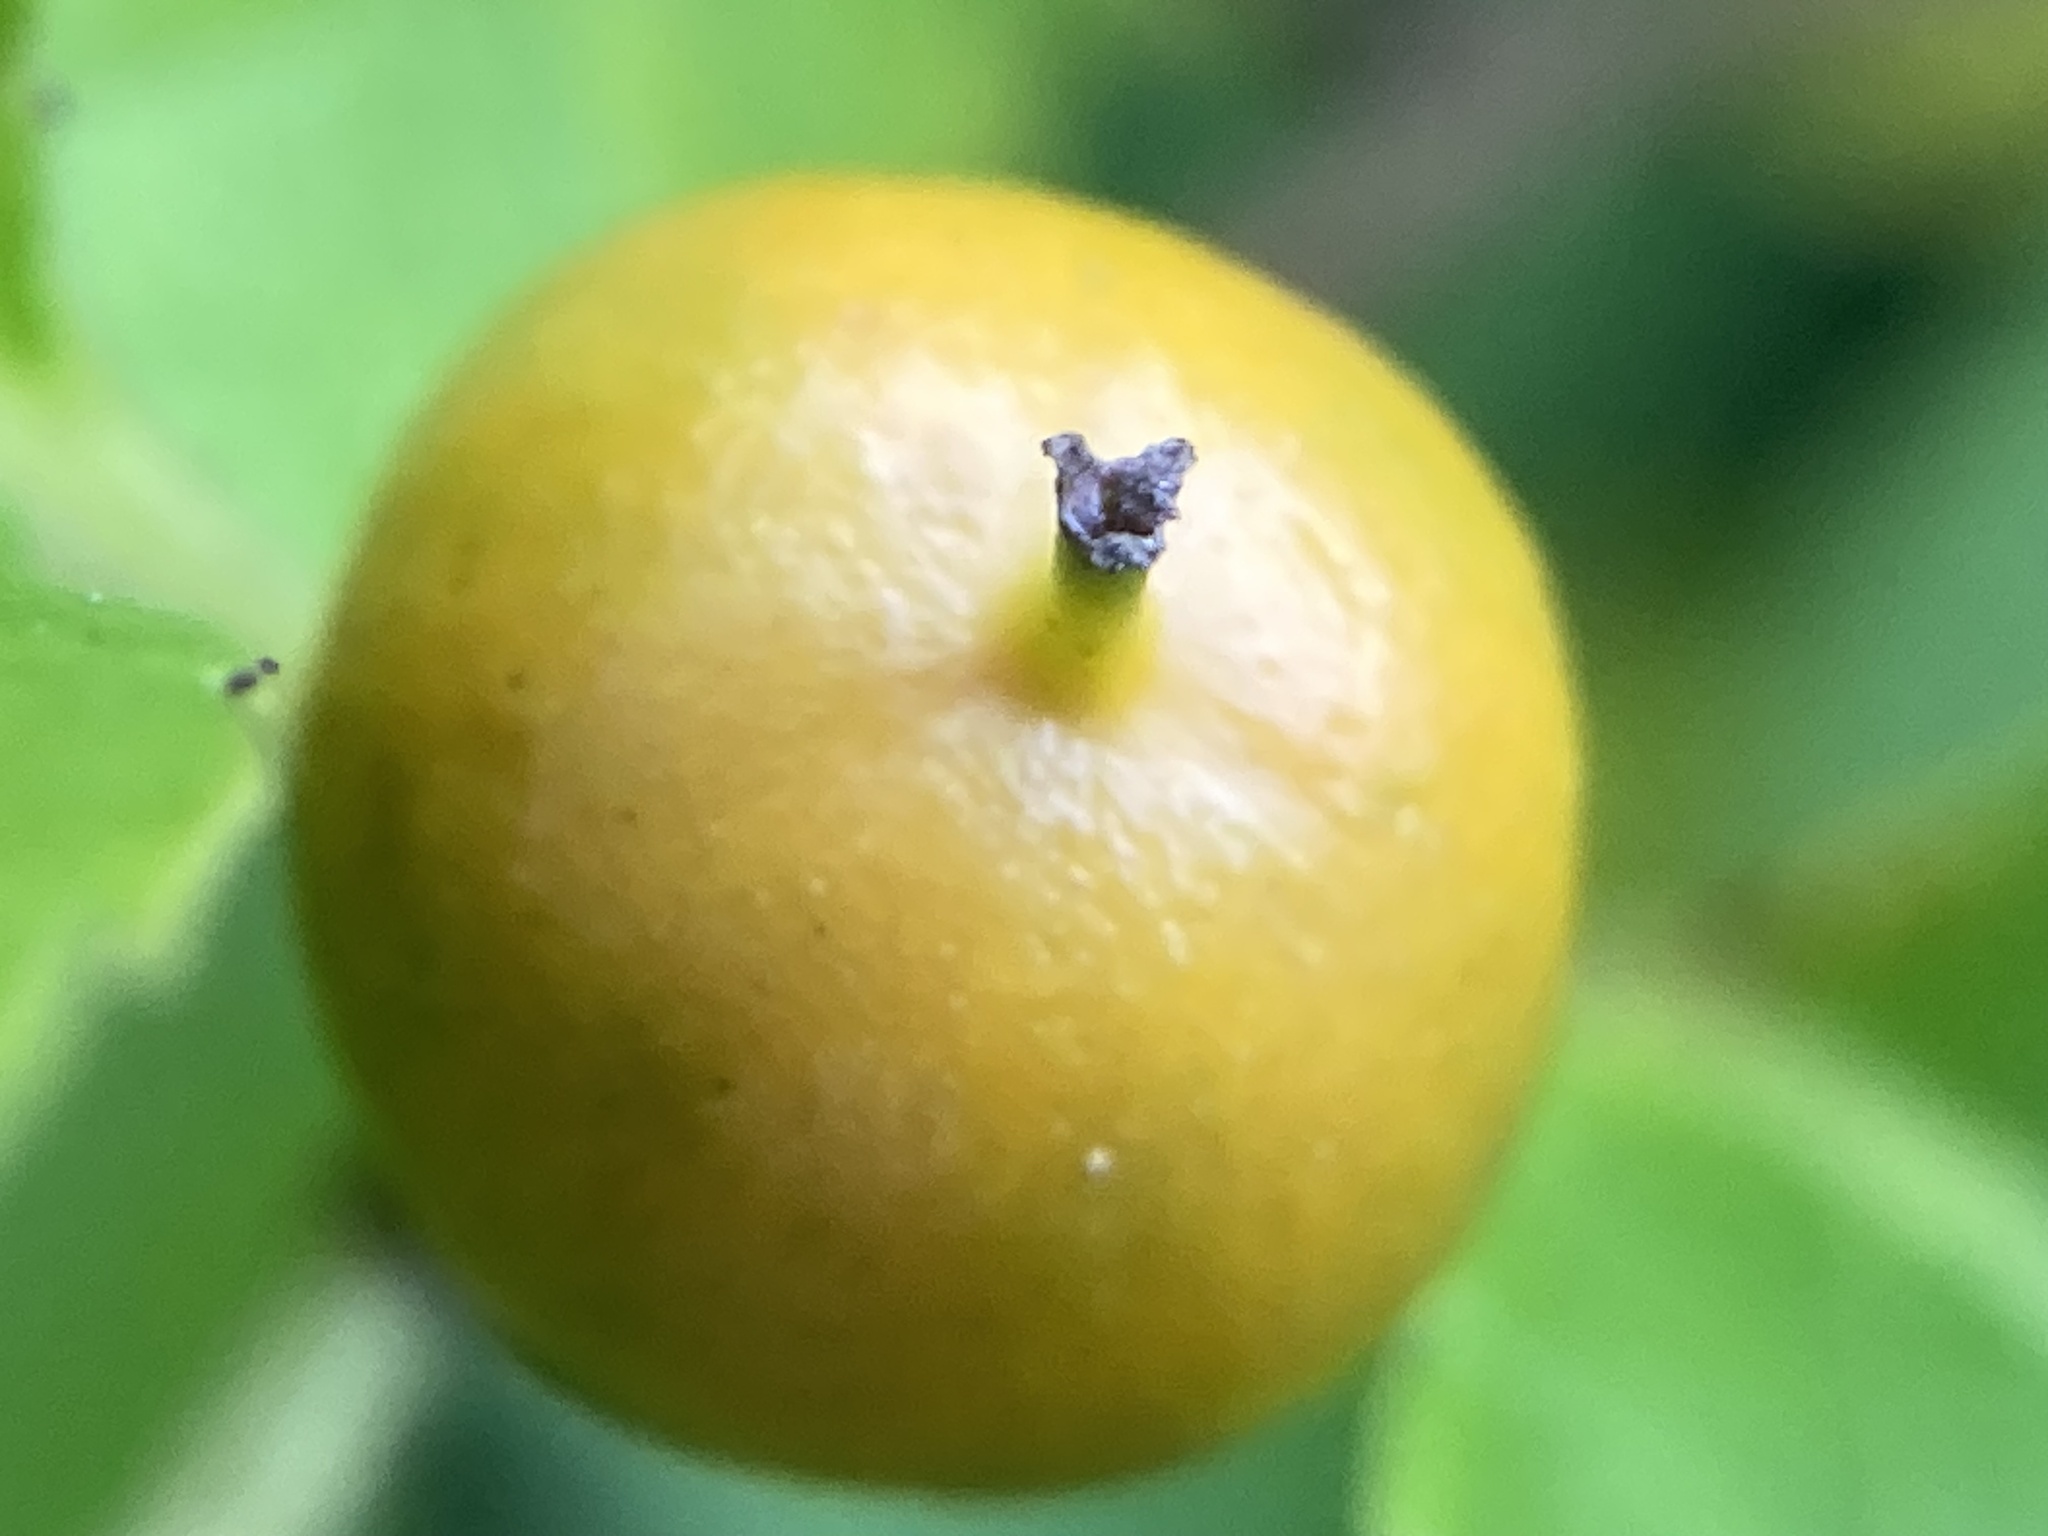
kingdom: Plantae
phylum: Tracheophyta
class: Magnoliopsida
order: Celastrales
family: Celastraceae
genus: Celastrus
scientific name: Celastrus orbiculatus
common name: Oriental bittersweet
